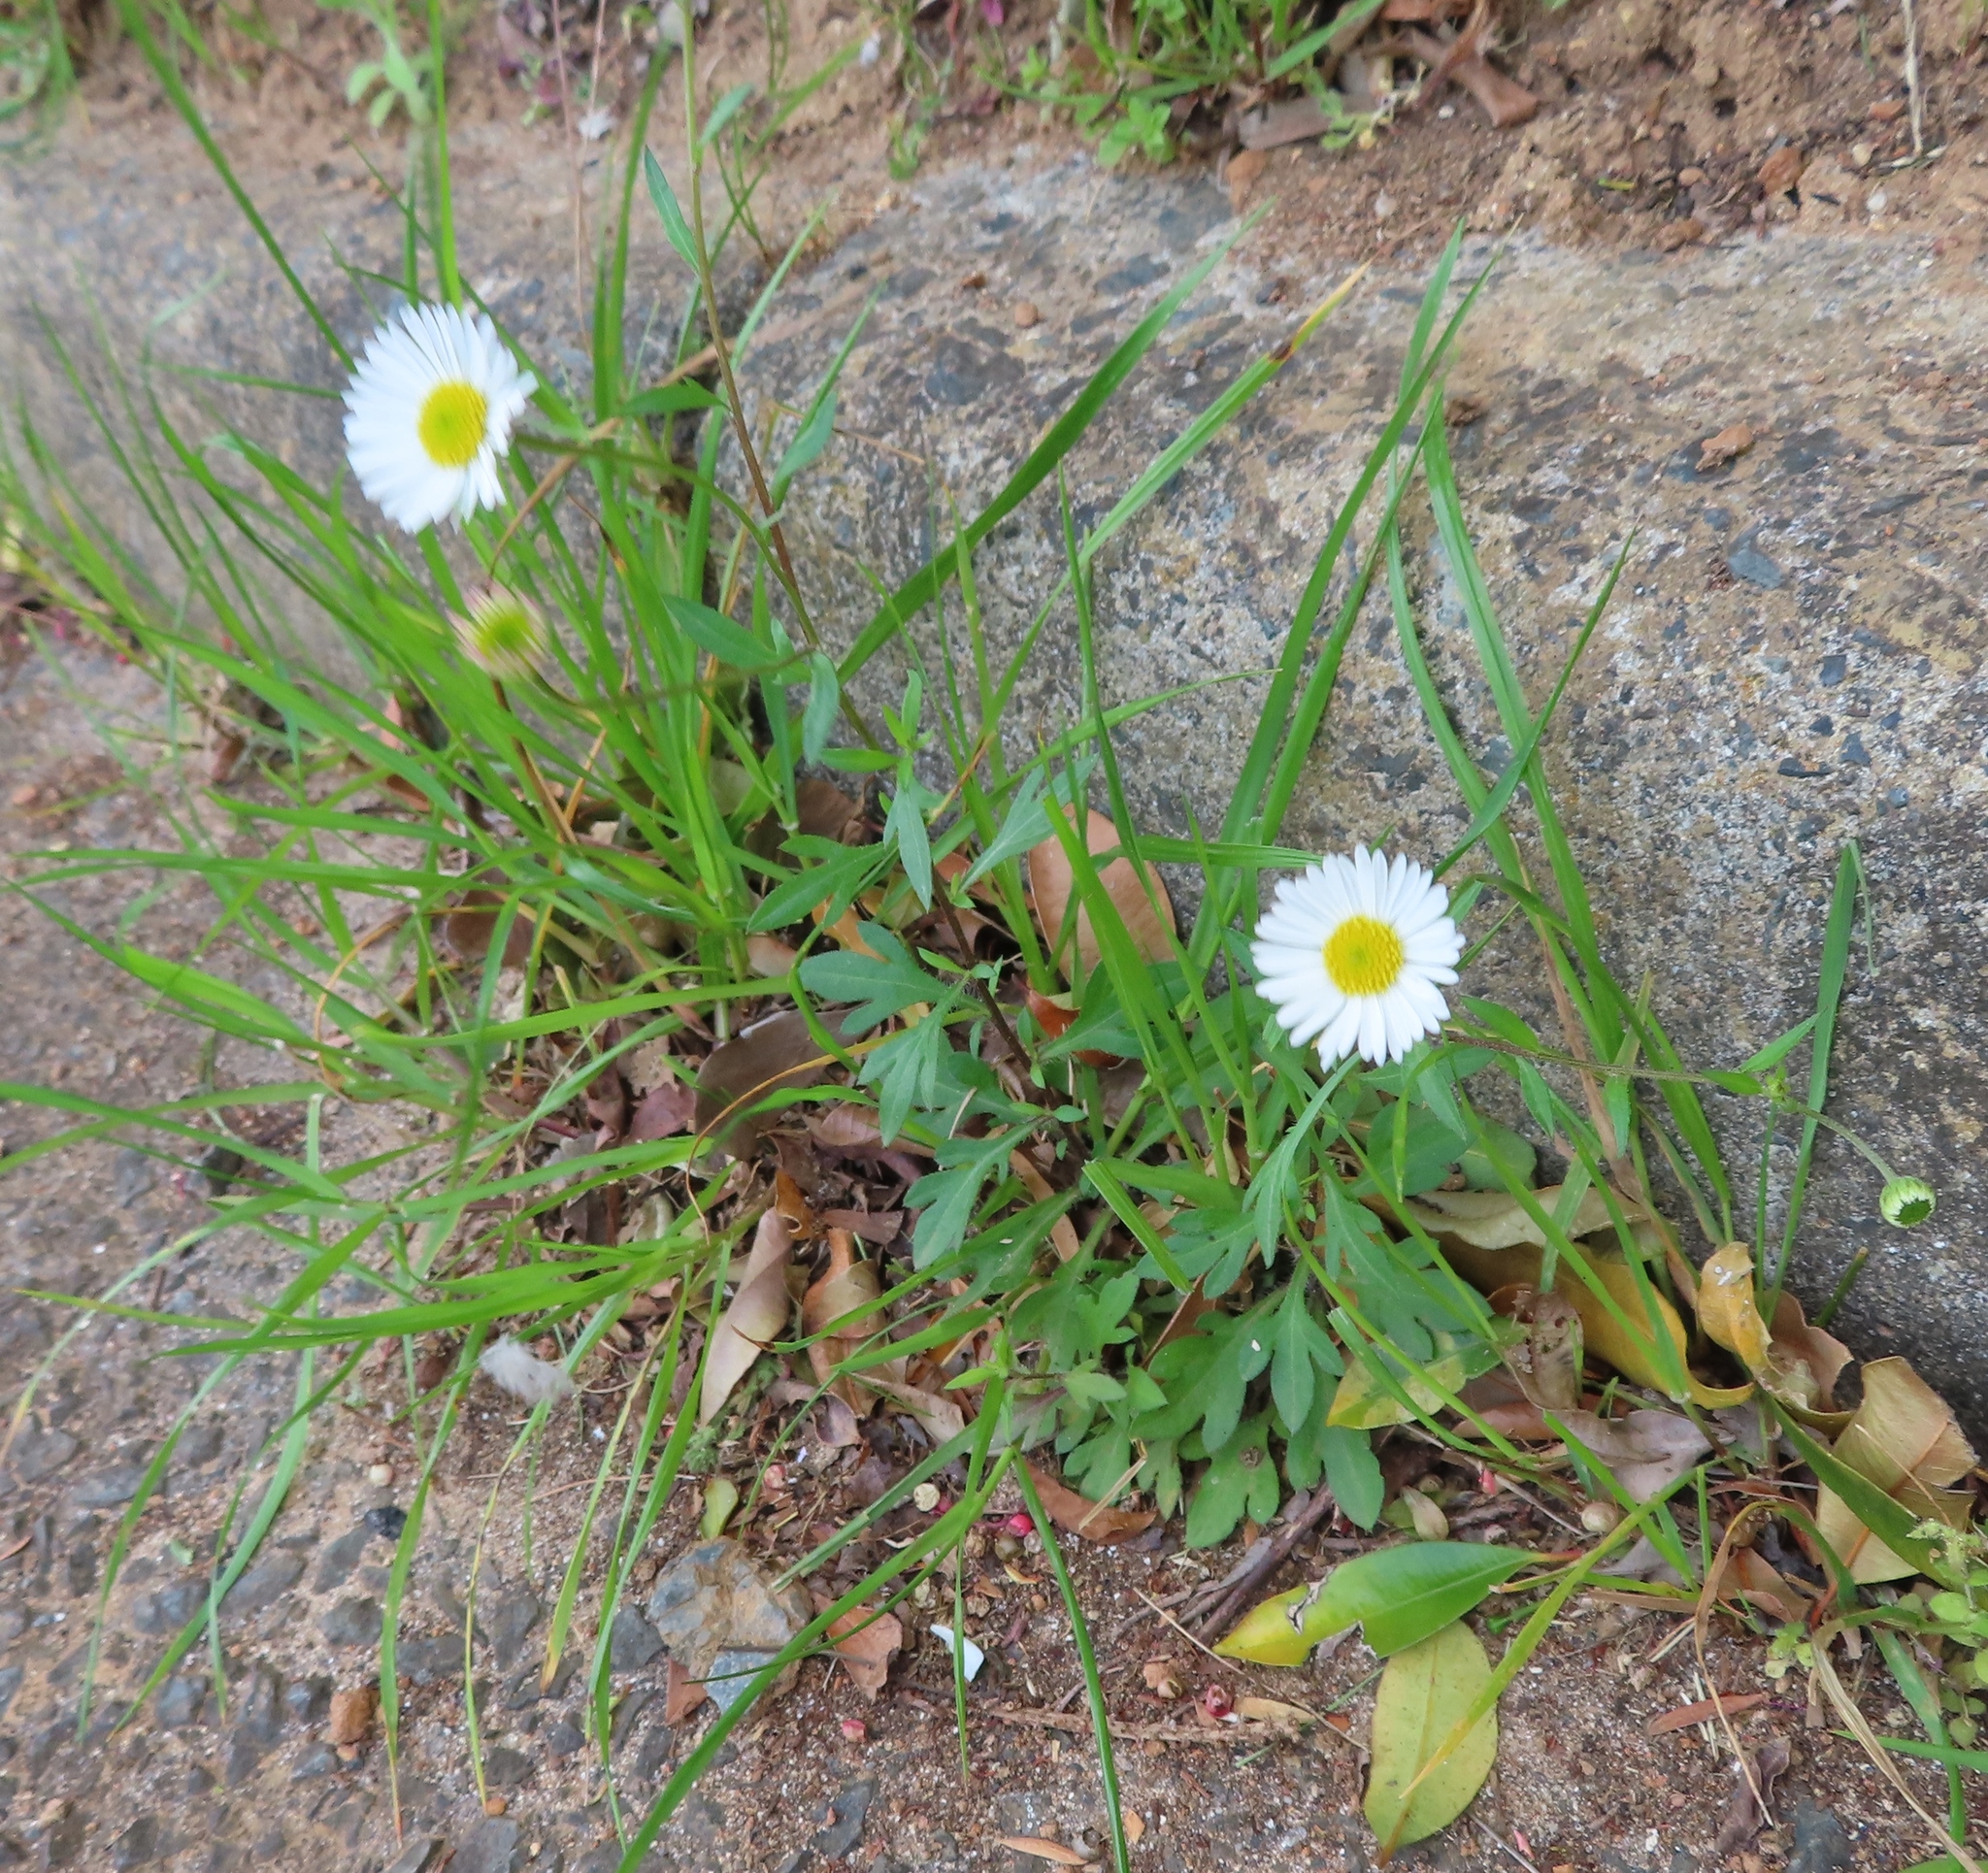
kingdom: Plantae
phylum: Tracheophyta
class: Magnoliopsida
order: Asterales
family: Asteraceae
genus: Erigeron
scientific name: Erigeron karvinskianus
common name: Mexican fleabane
